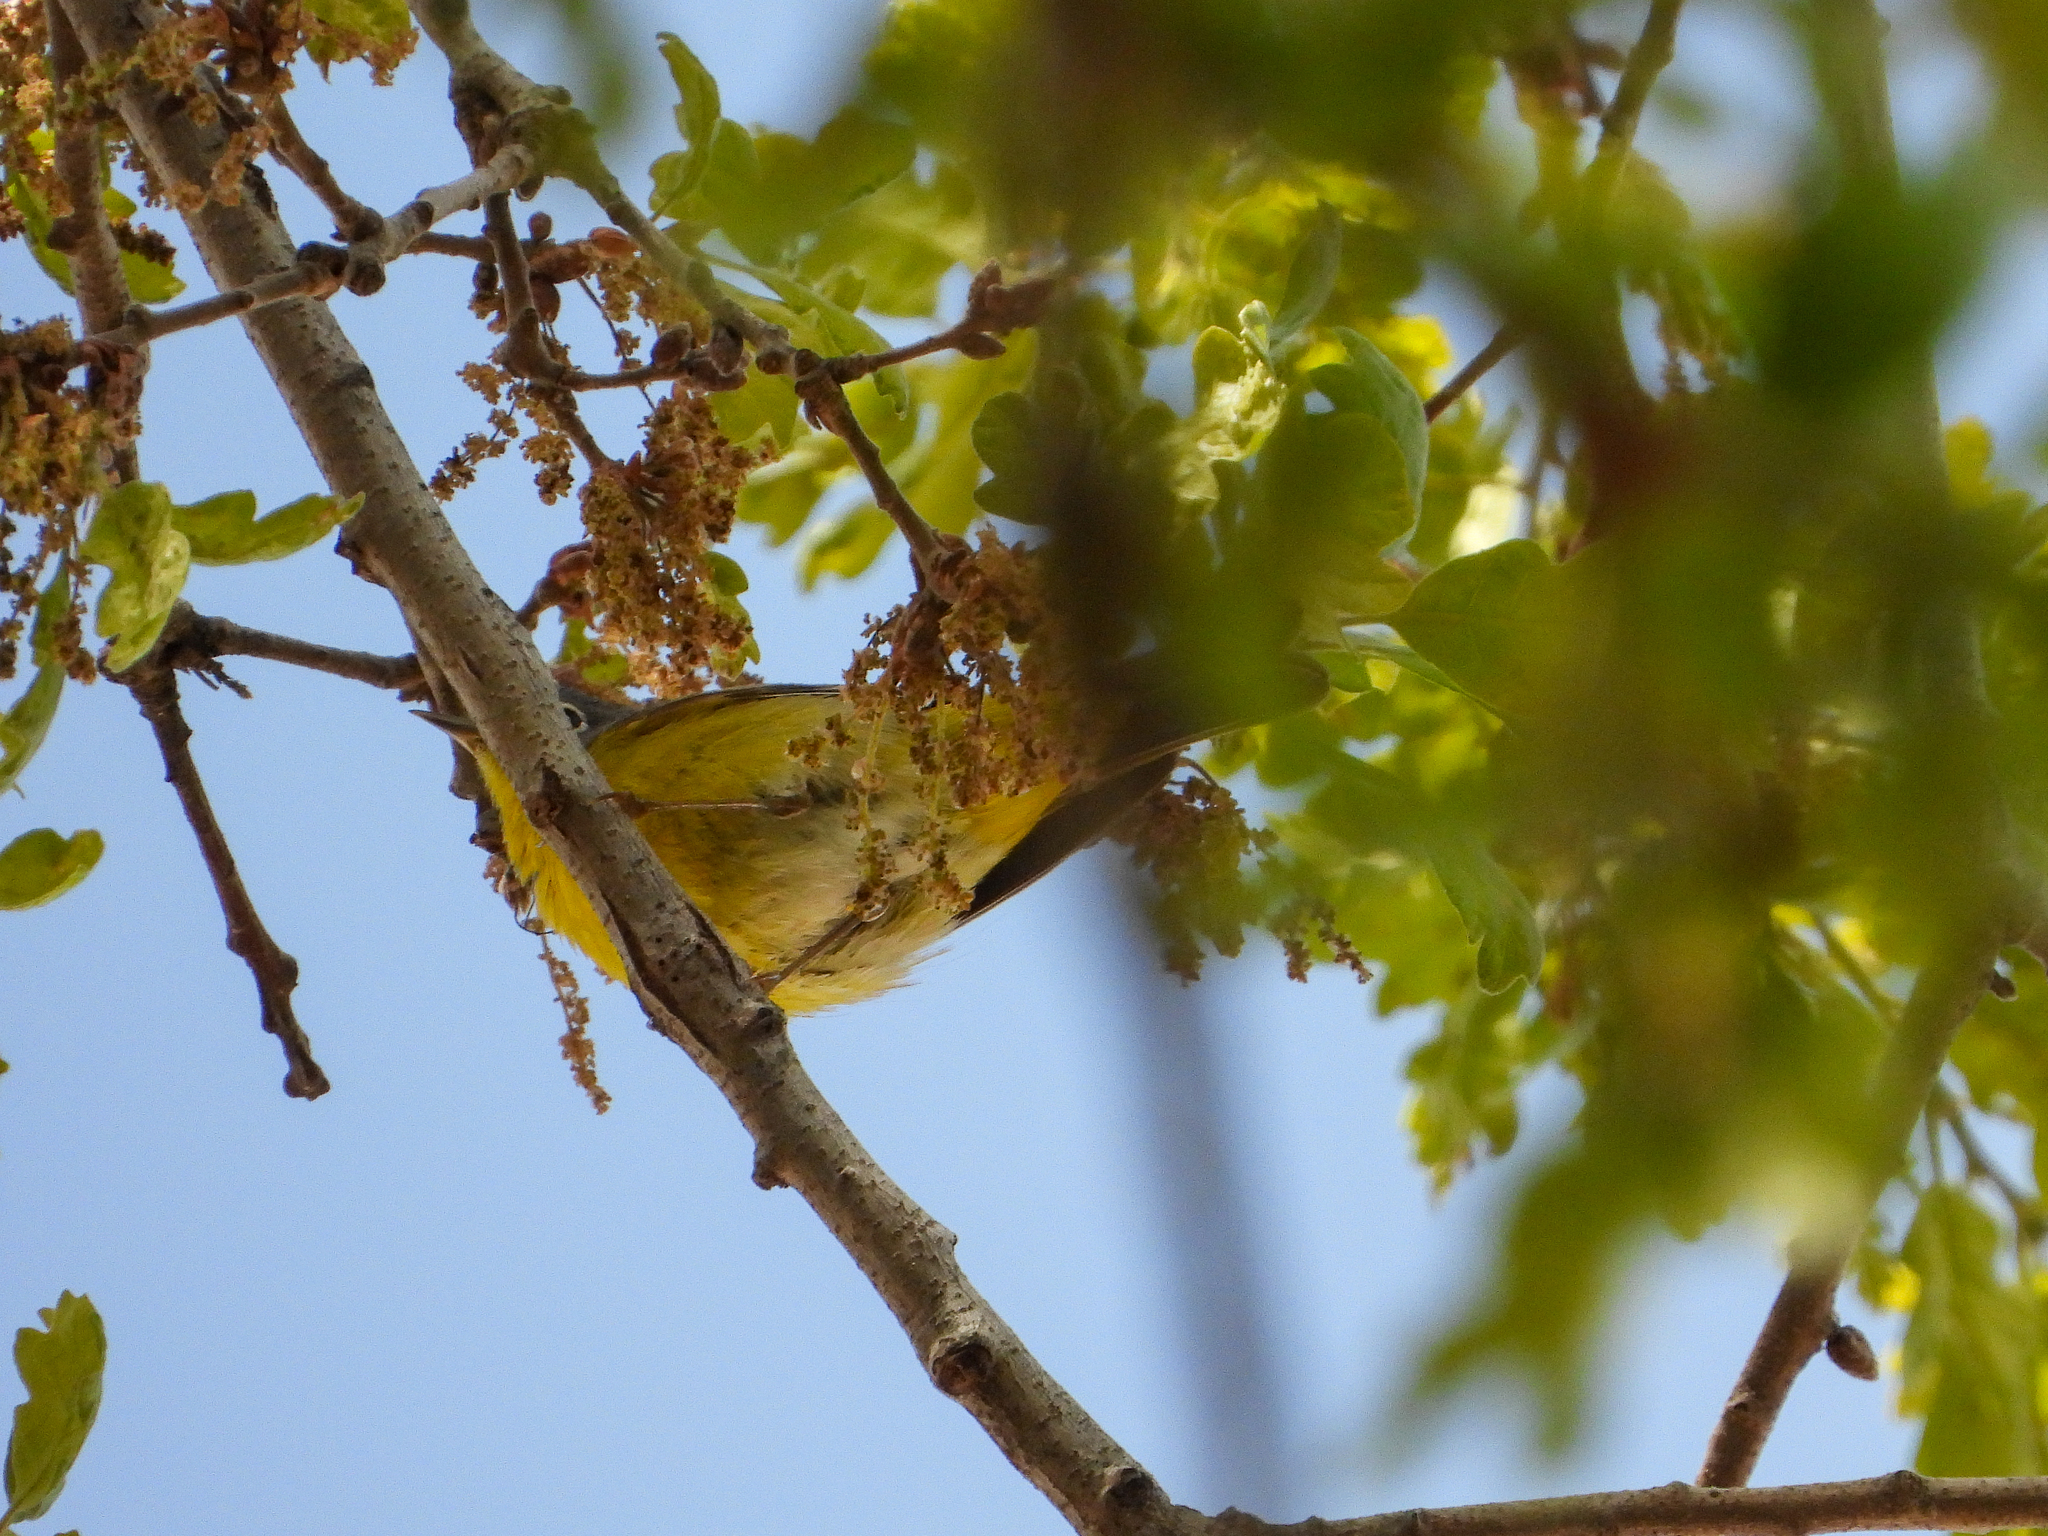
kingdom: Animalia
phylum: Chordata
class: Aves
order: Passeriformes
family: Parulidae
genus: Leiothlypis
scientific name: Leiothlypis ruficapilla
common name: Nashville warbler
